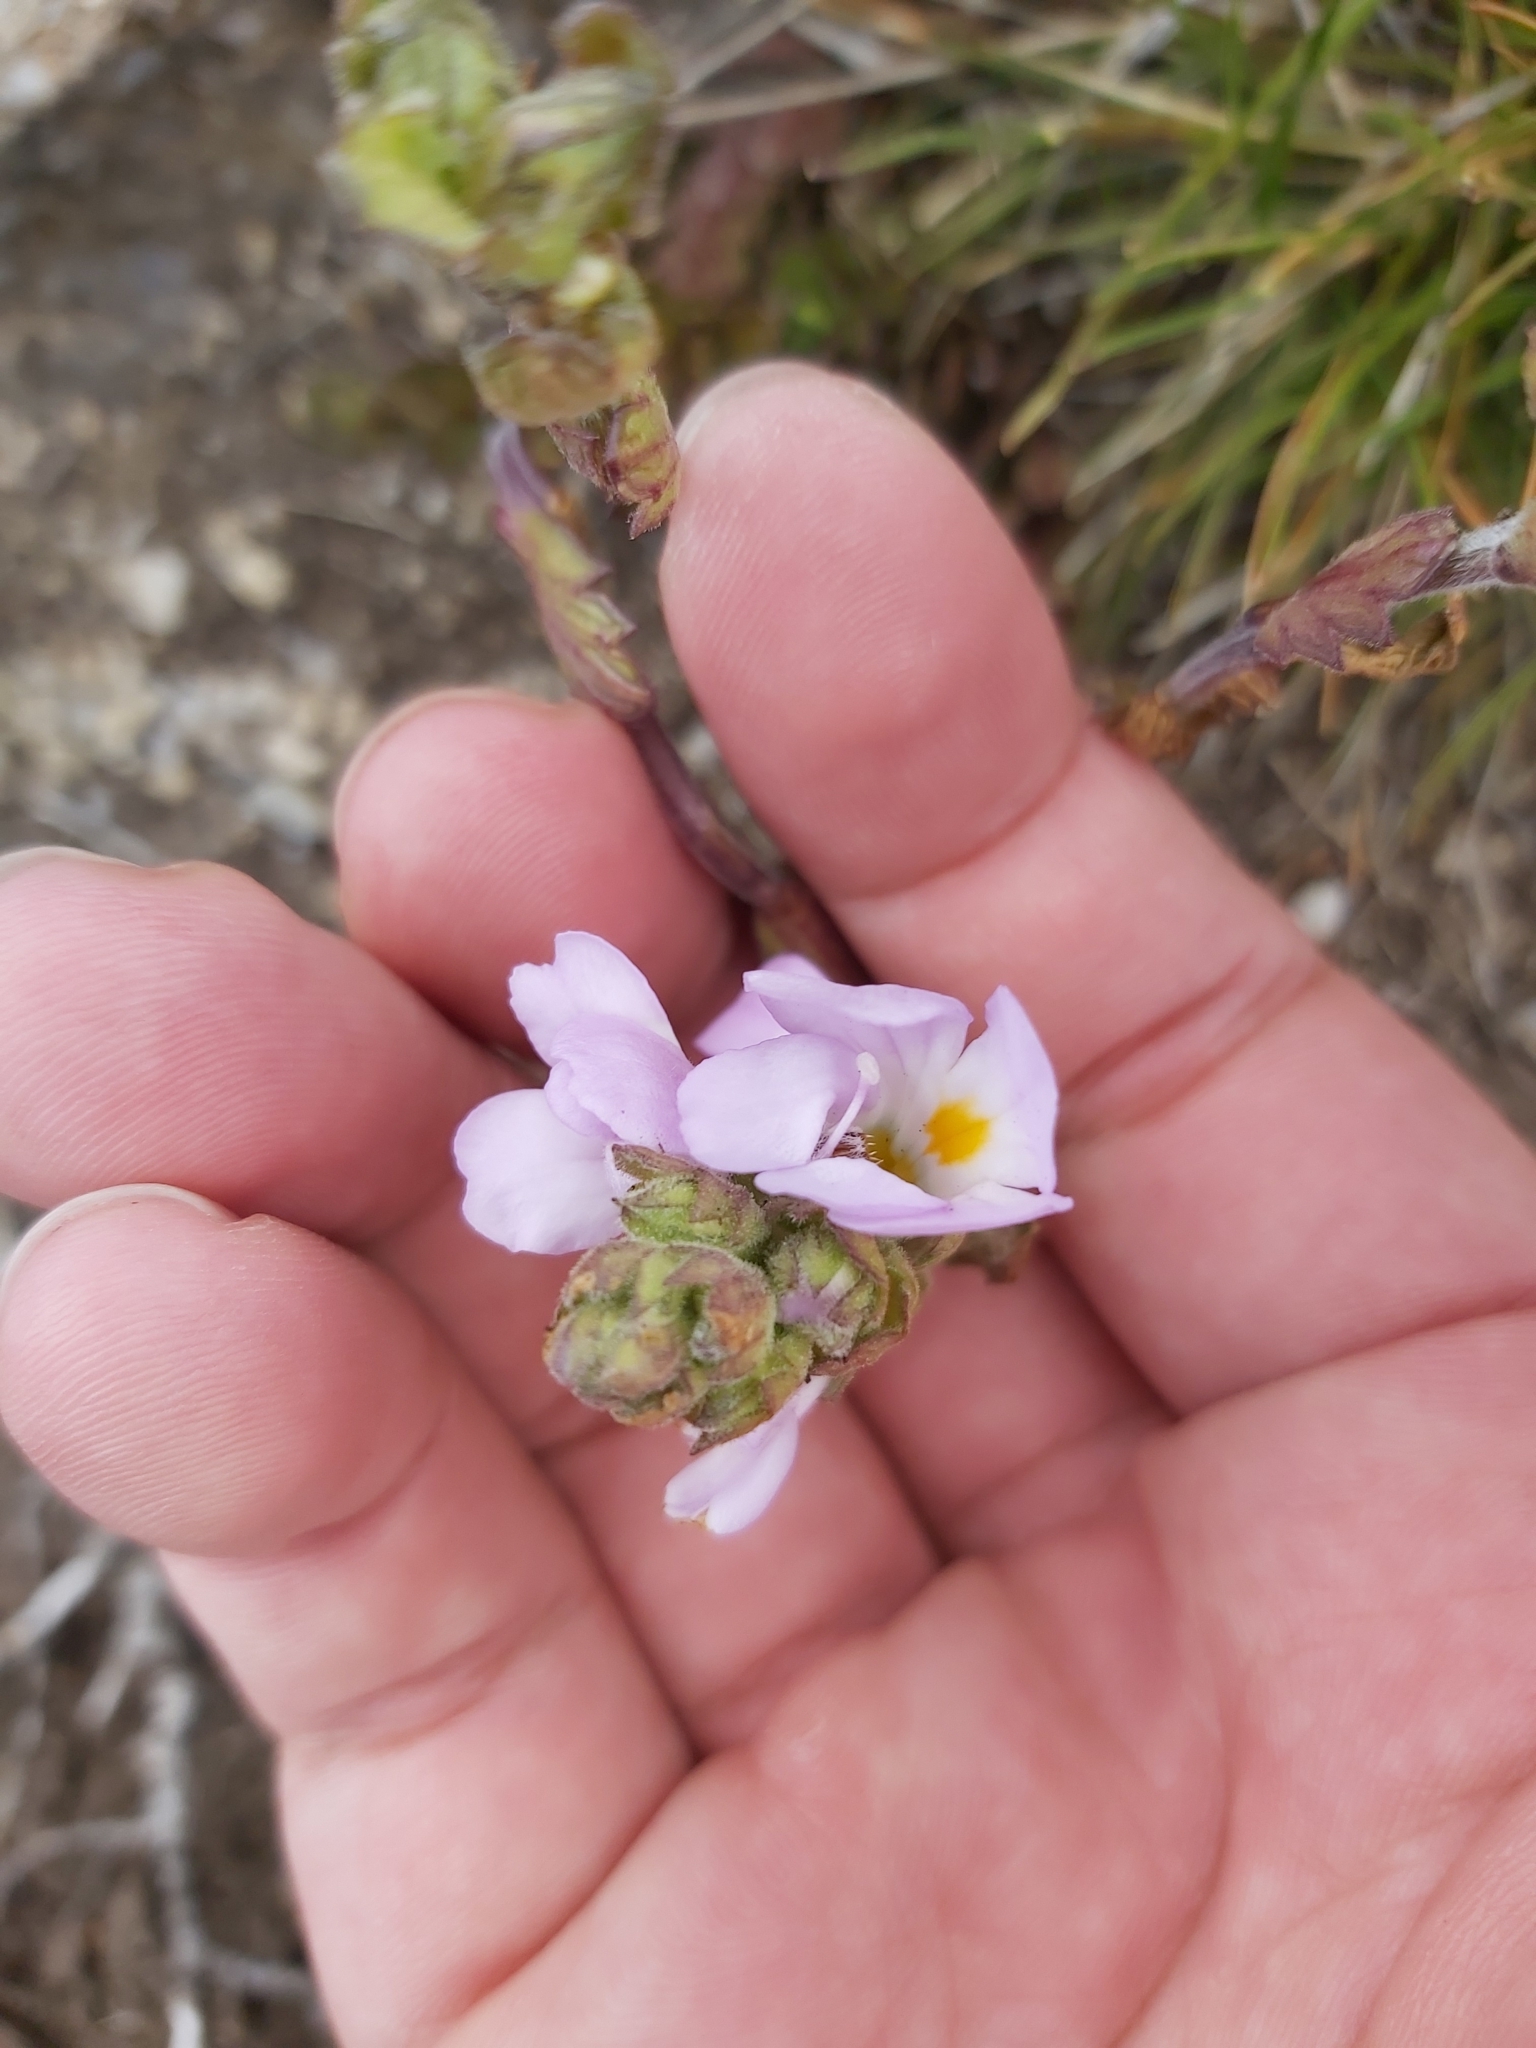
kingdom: Plantae
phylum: Tracheophyta
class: Magnoliopsida
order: Lamiales
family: Orobanchaceae
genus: Euphrasia
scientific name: Euphrasia collina
